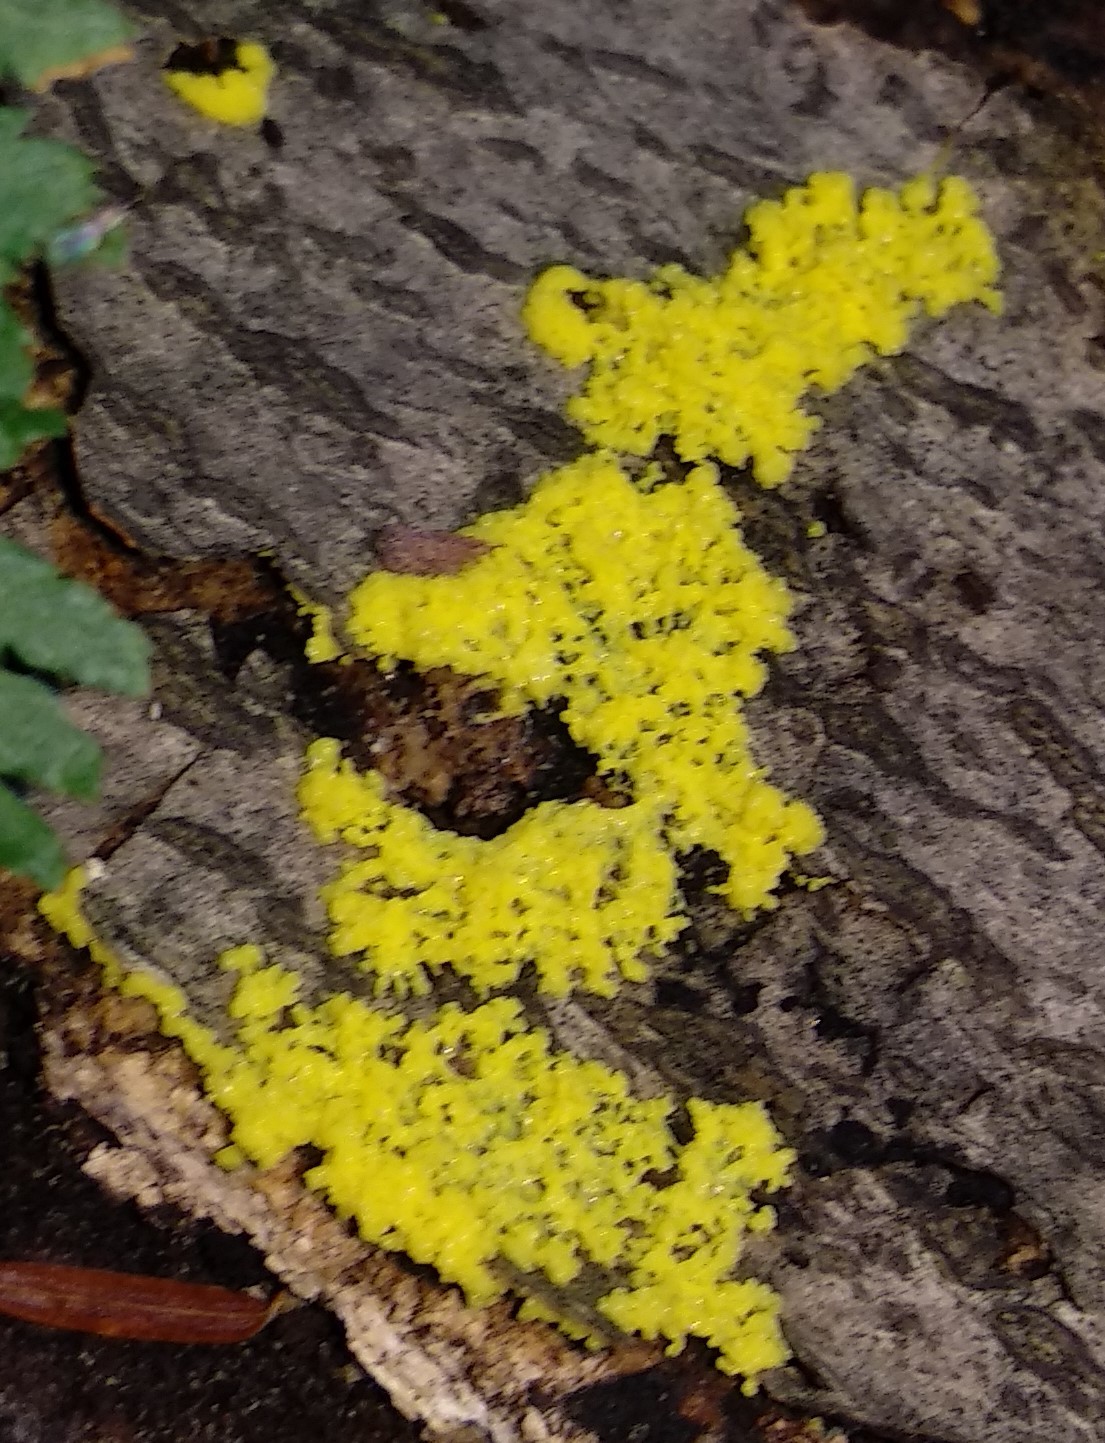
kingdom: Protozoa
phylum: Mycetozoa
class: Myxomycetes
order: Physarales
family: Physaraceae
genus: Fuligo
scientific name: Fuligo septica
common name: Dog vomit slime mold
